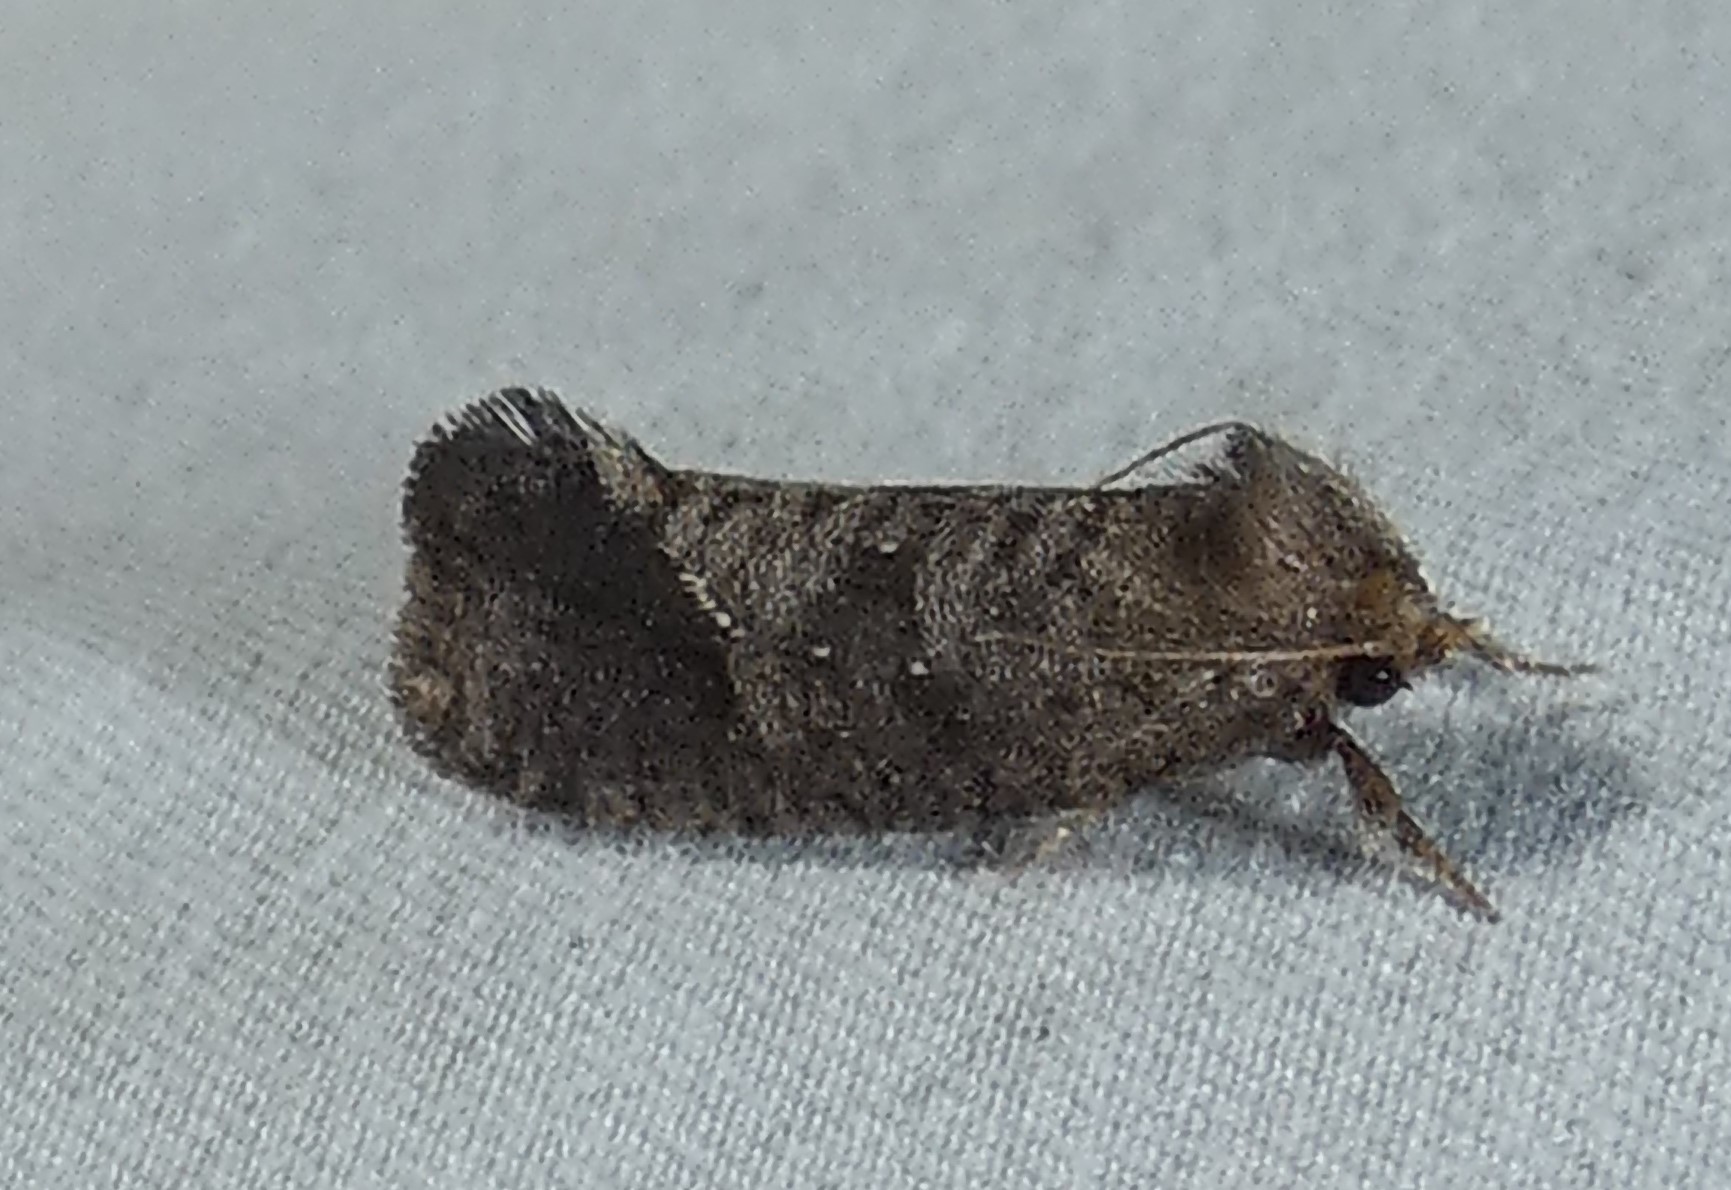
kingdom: Animalia
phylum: Arthropoda
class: Insecta
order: Lepidoptera
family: Tineidae
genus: Acrolophus
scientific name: Acrolophus texanella
